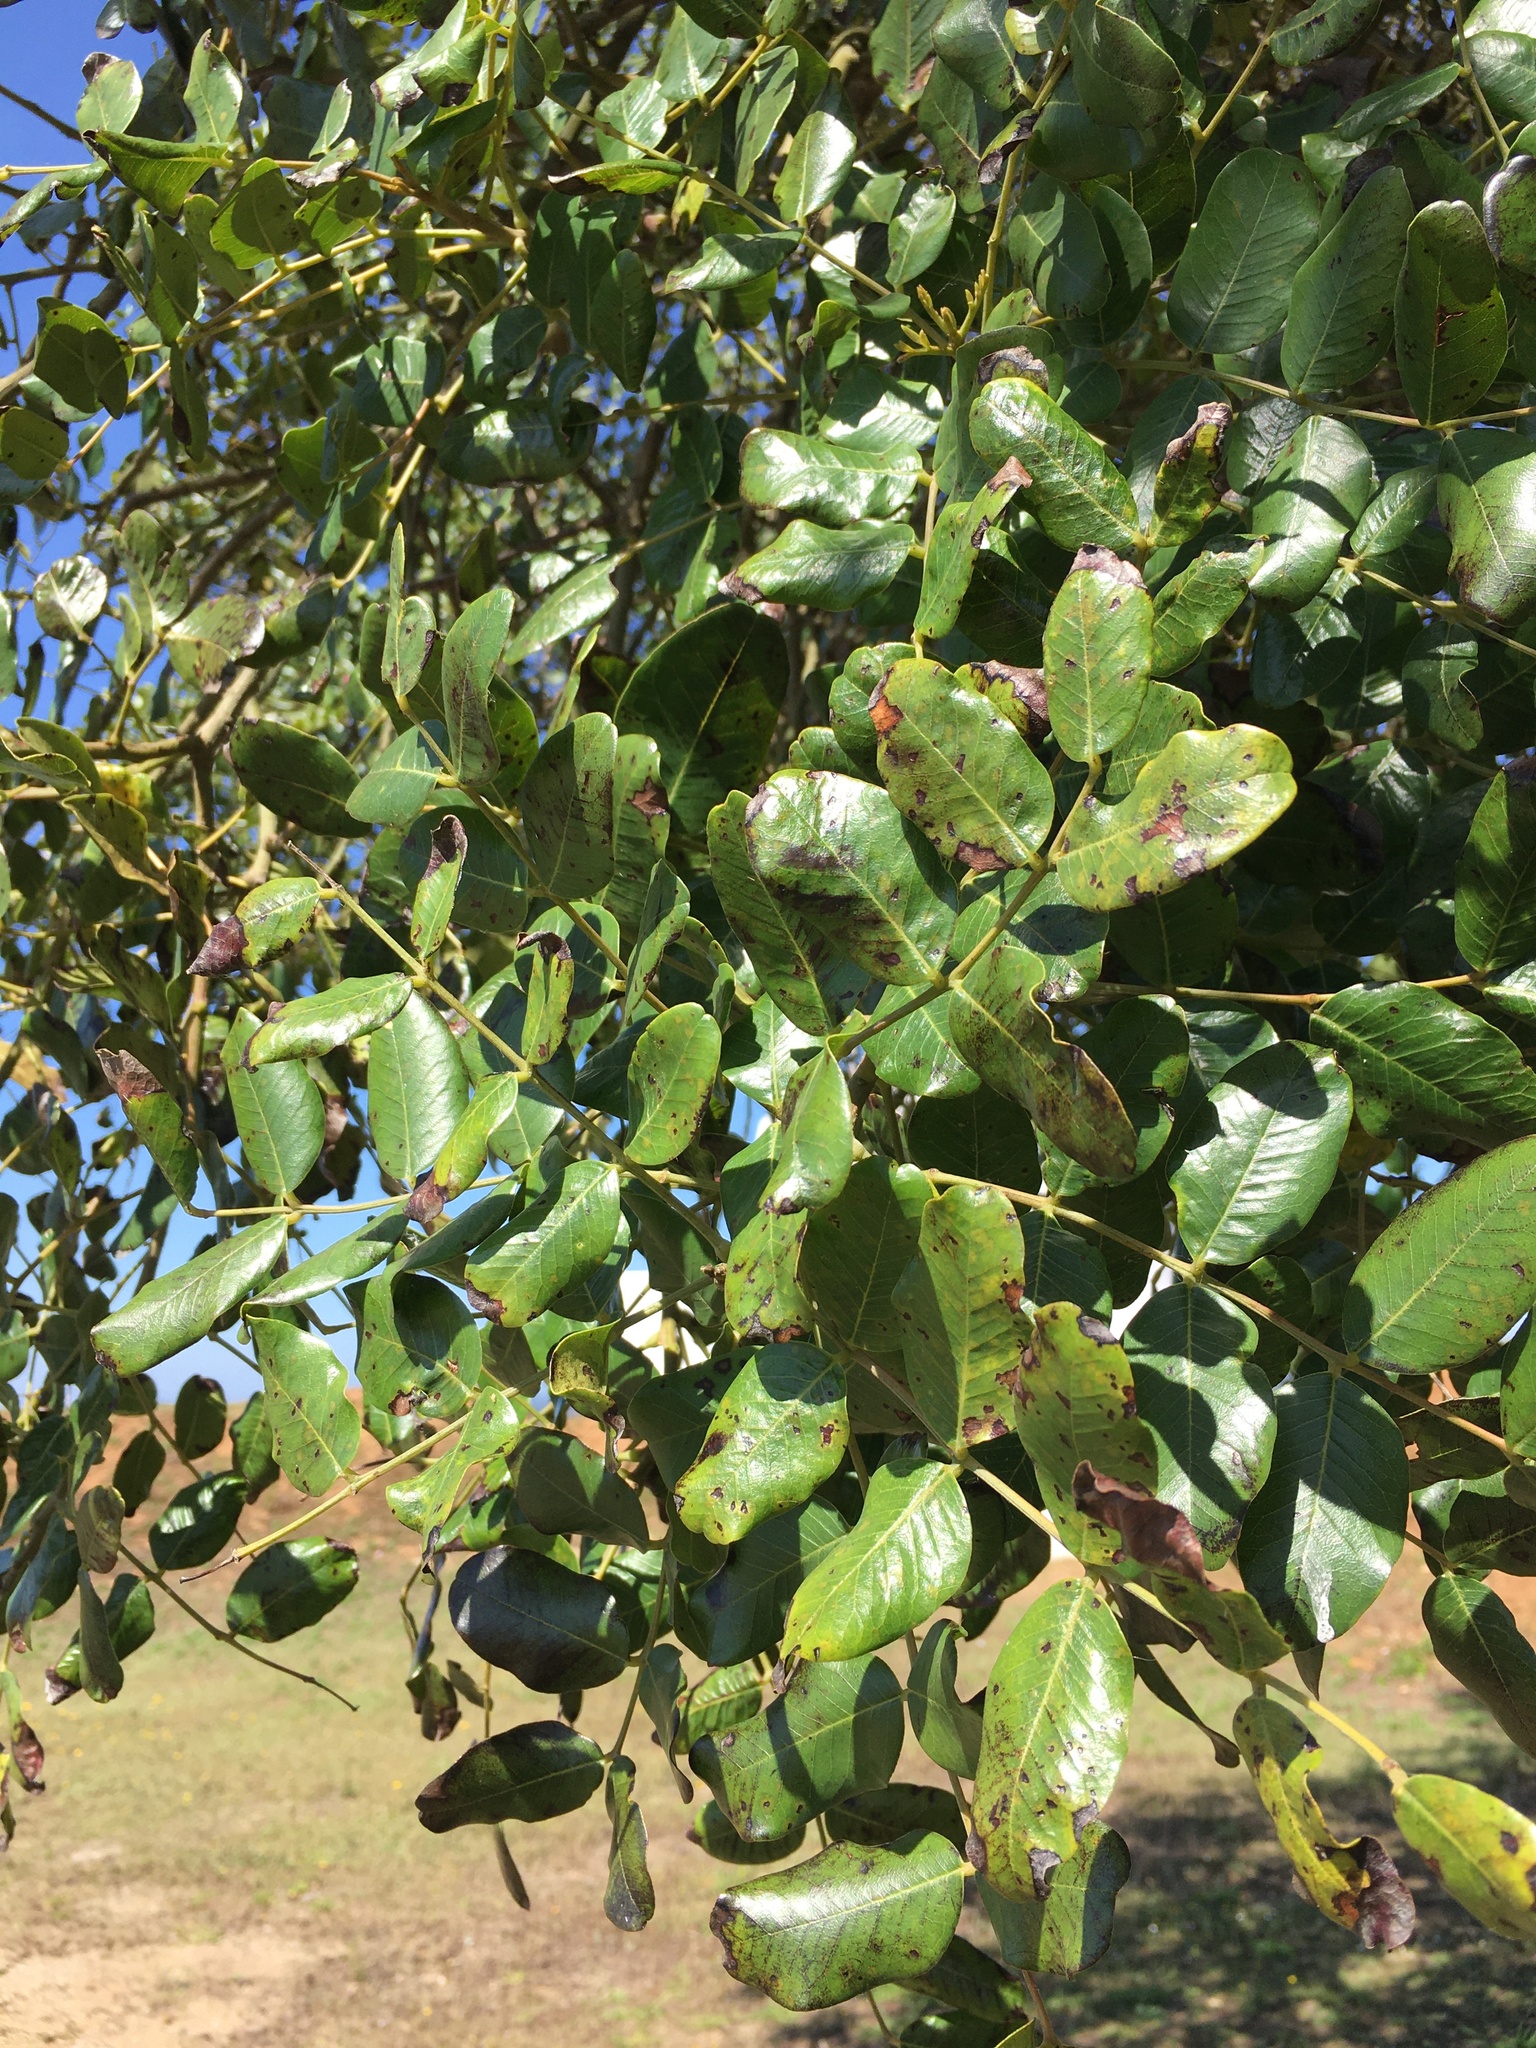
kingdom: Plantae
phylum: Tracheophyta
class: Magnoliopsida
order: Fabales
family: Fabaceae
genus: Ceratonia
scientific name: Ceratonia siliqua
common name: Carob
